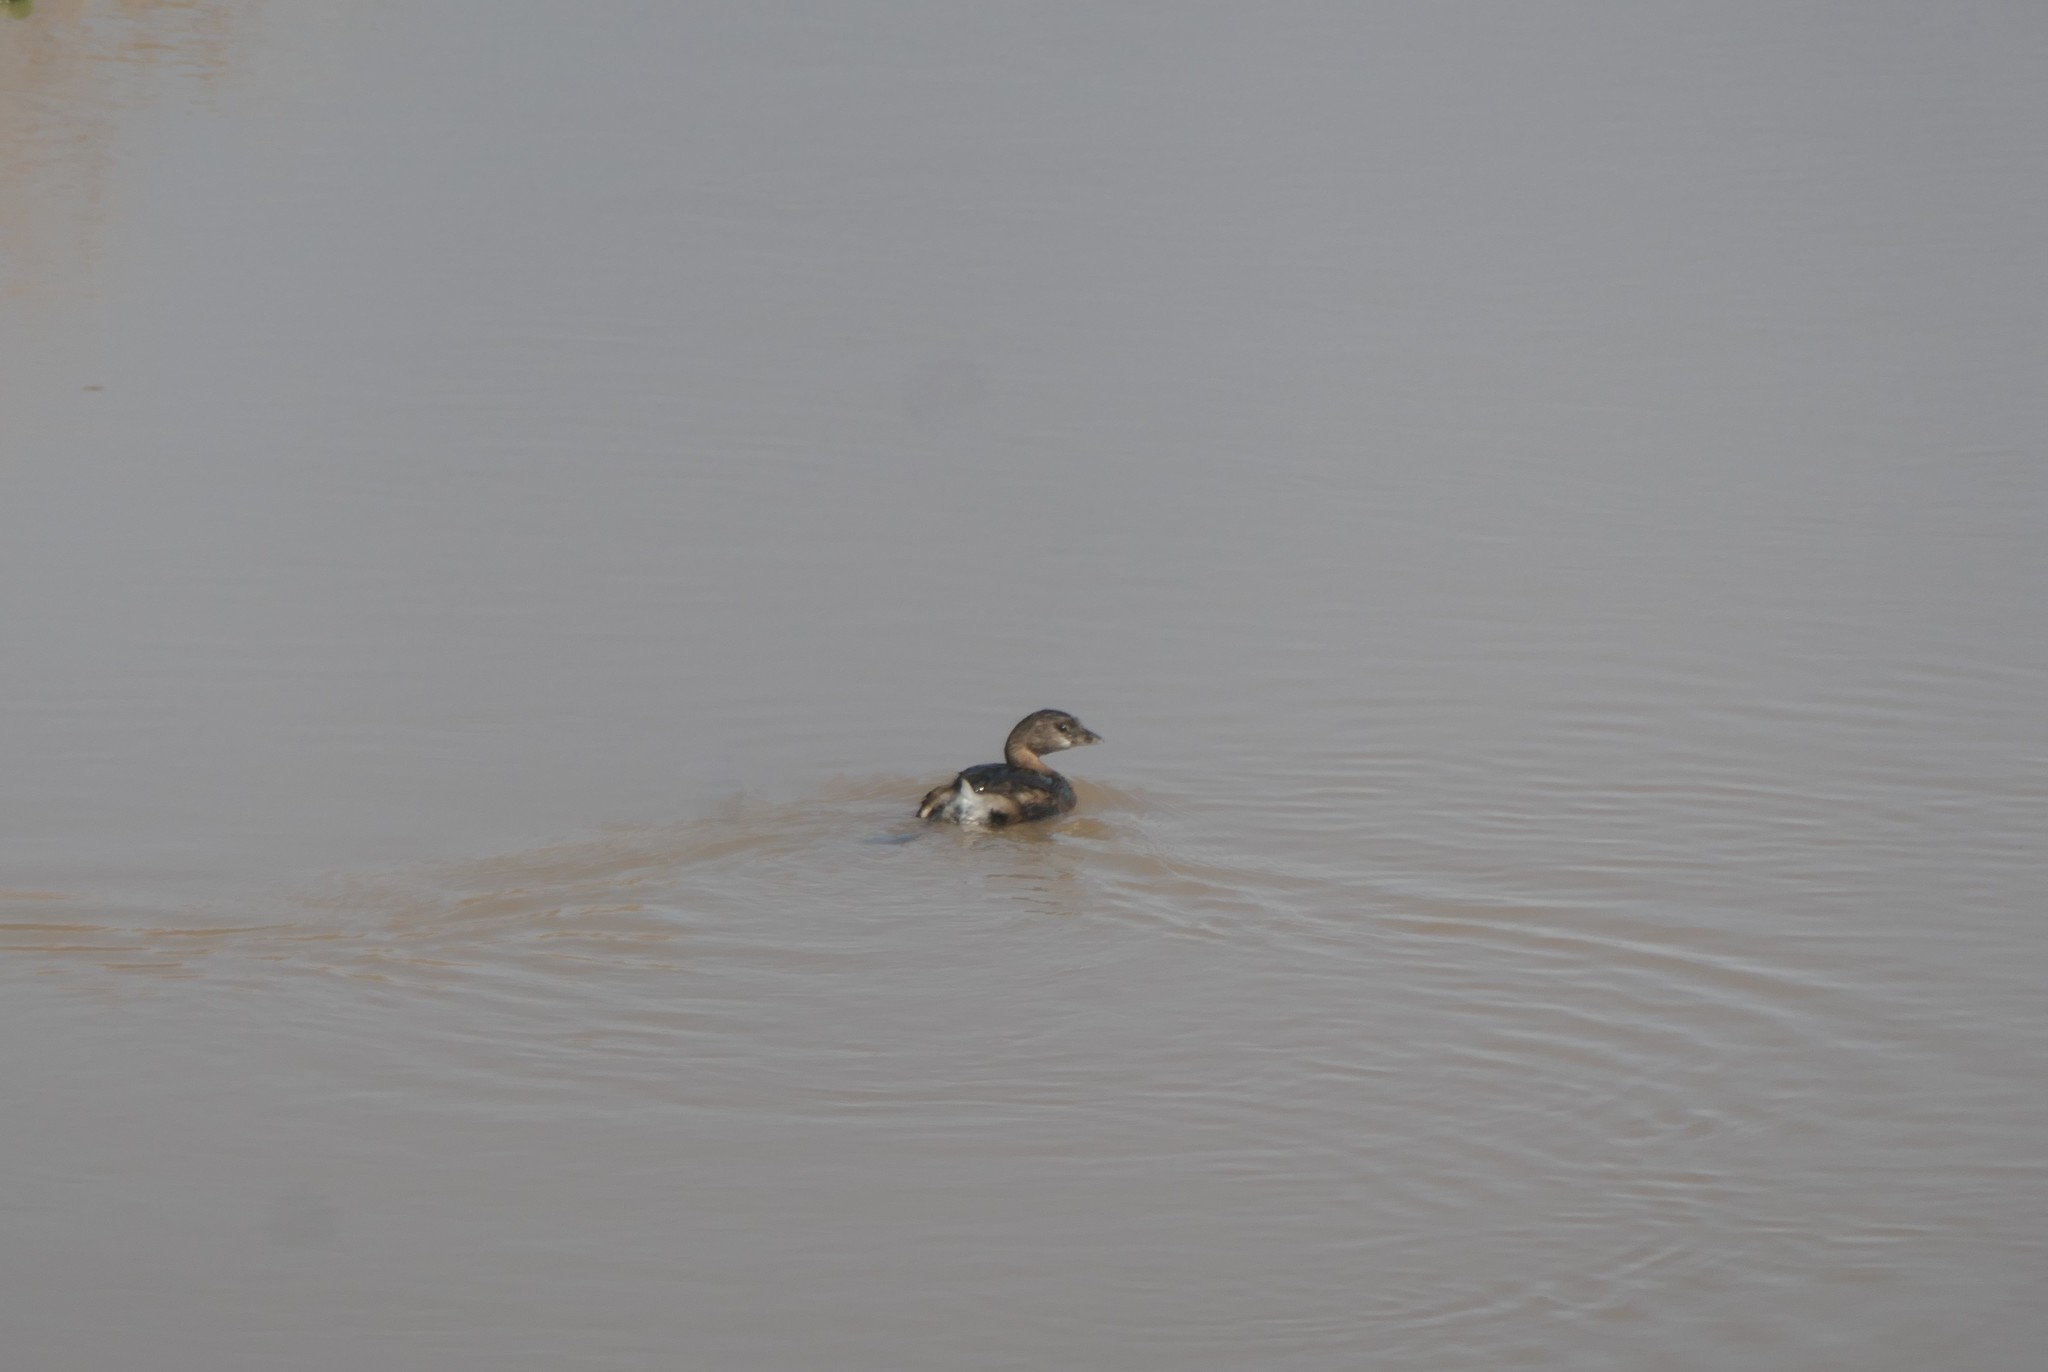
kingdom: Animalia
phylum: Chordata
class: Aves
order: Podicipediformes
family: Podicipedidae
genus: Podilymbus
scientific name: Podilymbus podiceps
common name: Pied-billed grebe
